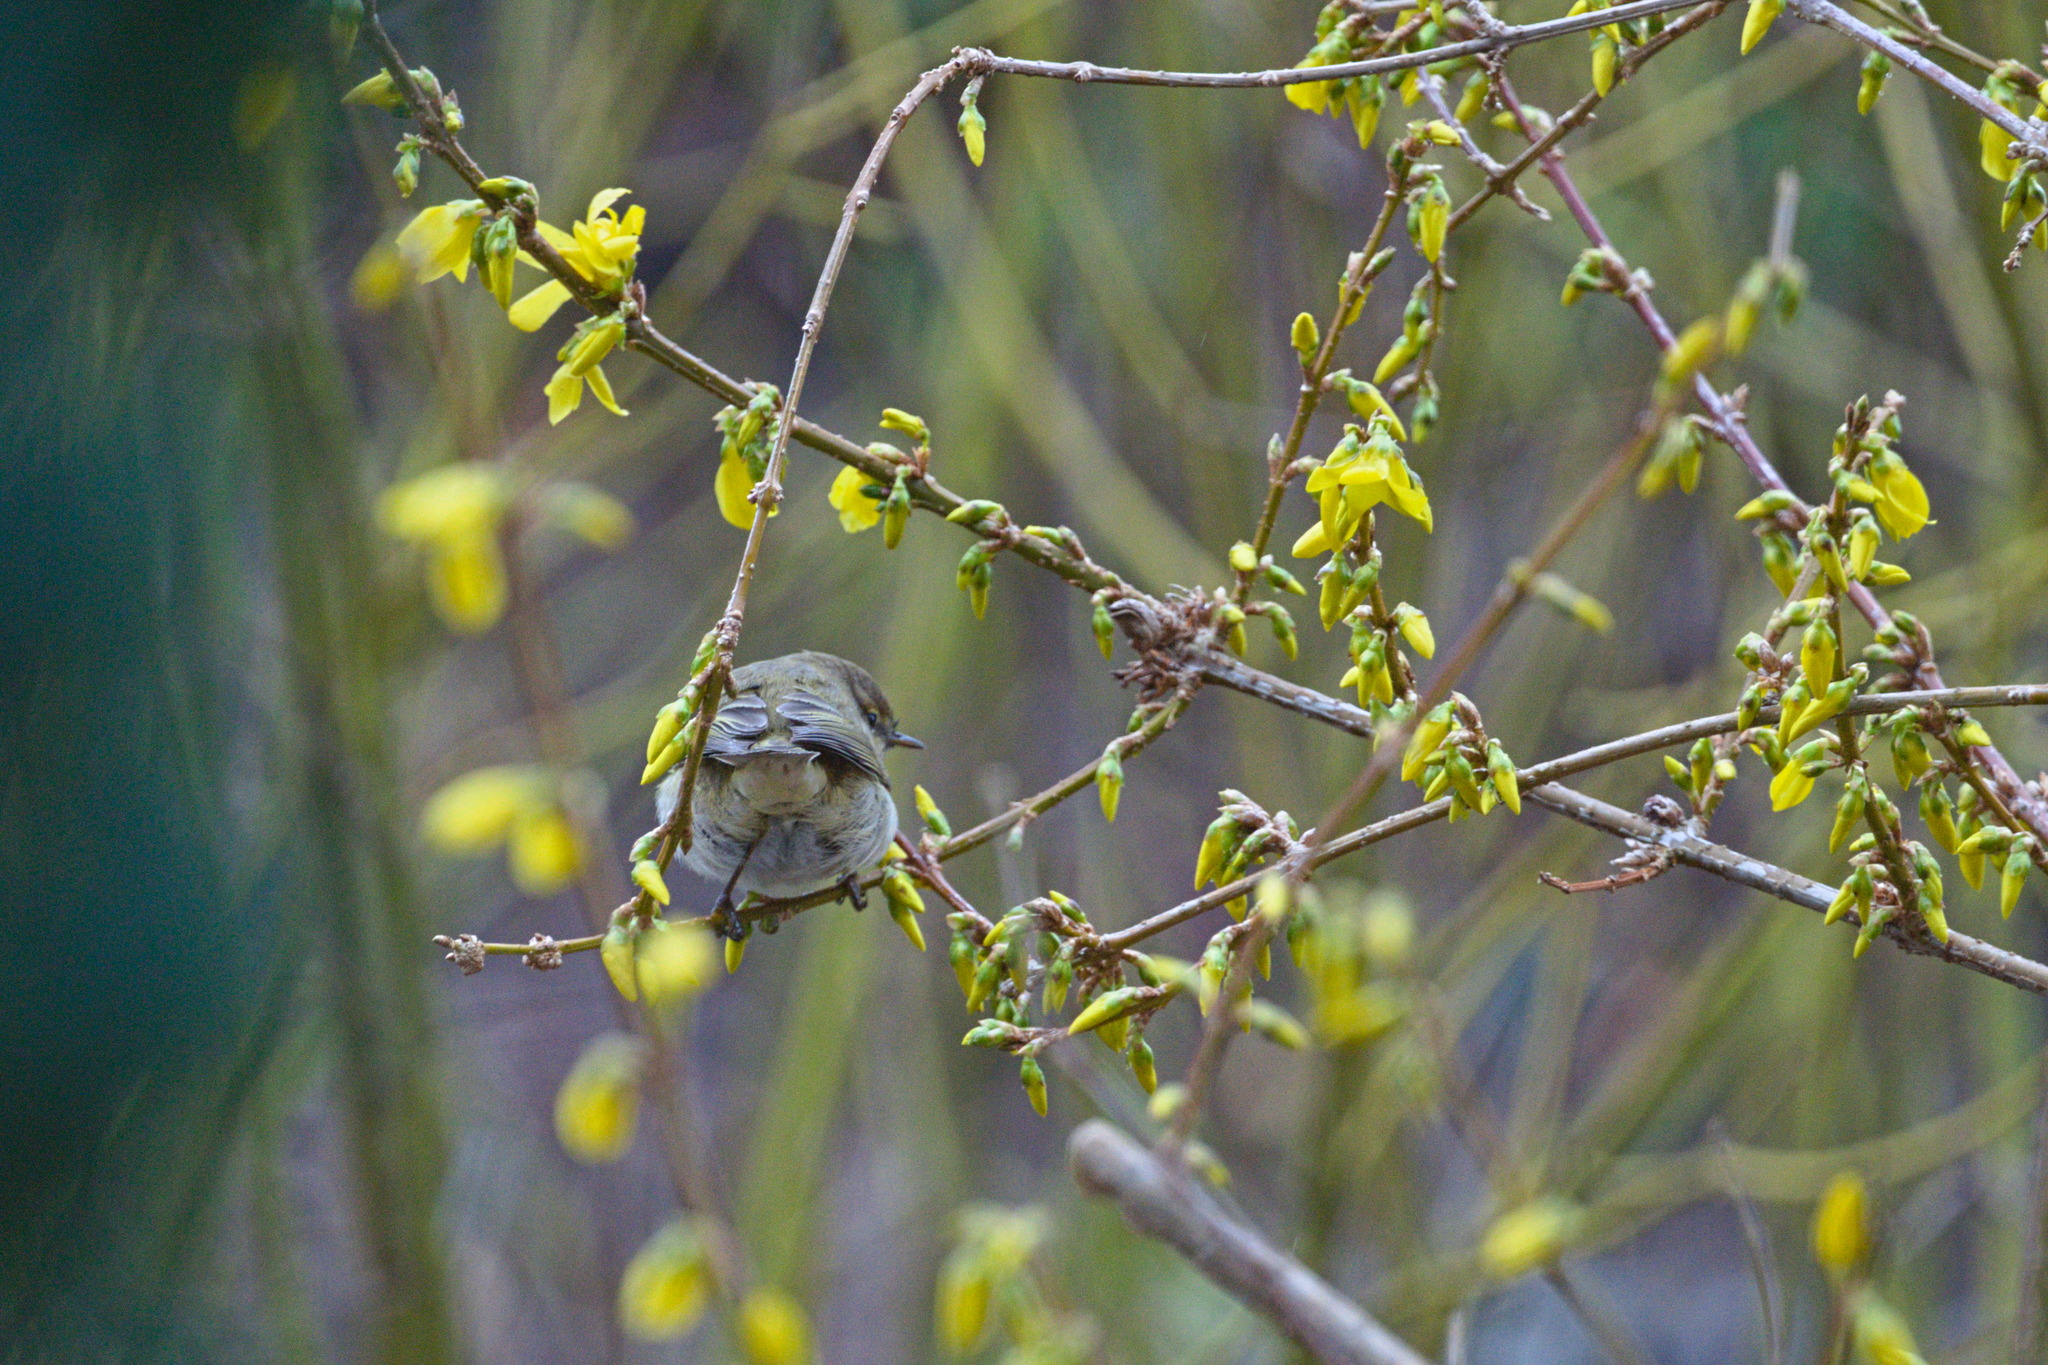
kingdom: Animalia
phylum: Chordata
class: Aves
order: Passeriformes
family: Phylloscopidae
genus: Phylloscopus
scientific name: Phylloscopus collybita
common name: Common chiffchaff
